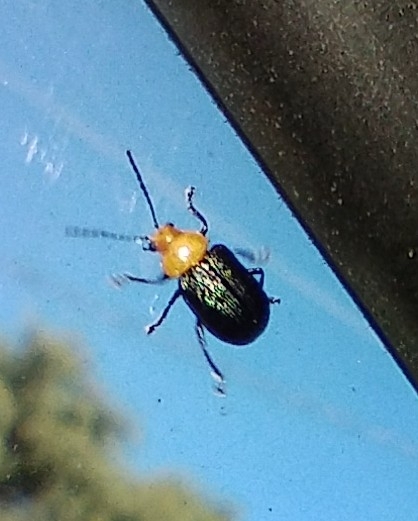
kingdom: Animalia
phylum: Arthropoda
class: Insecta
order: Coleoptera
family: Chrysomelidae
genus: Freudeita
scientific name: Freudeita
